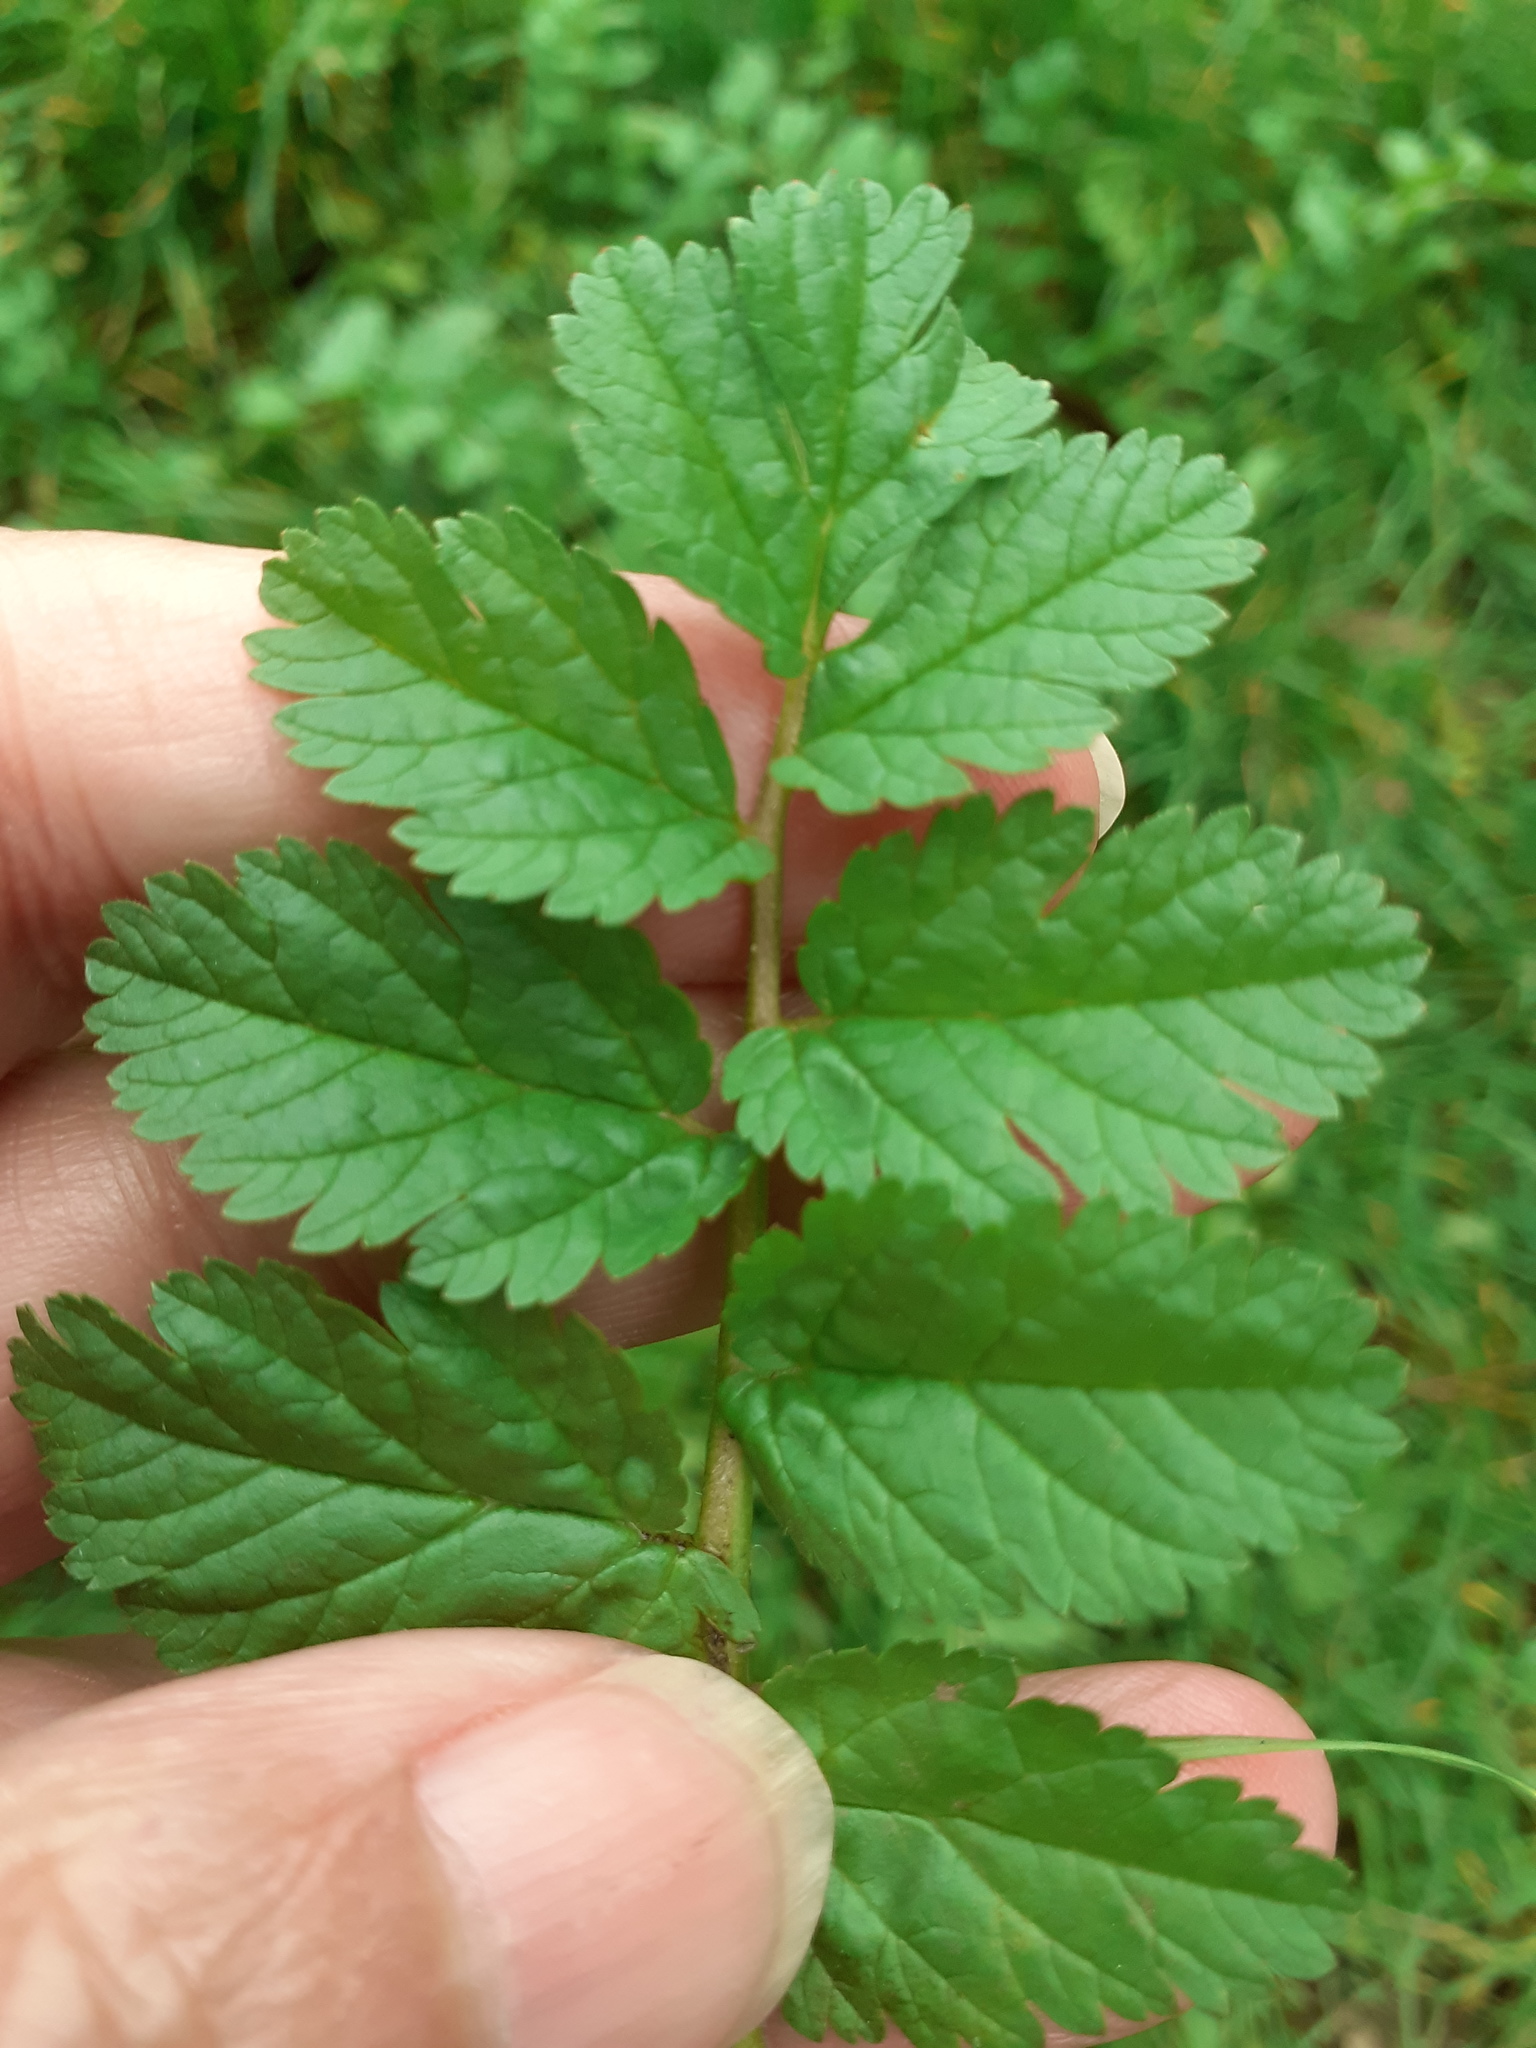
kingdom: Plantae
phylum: Tracheophyta
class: Magnoliopsida
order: Geraniales
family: Geraniaceae
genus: Erodium
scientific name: Erodium moschatum
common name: Musk stork's-bill
